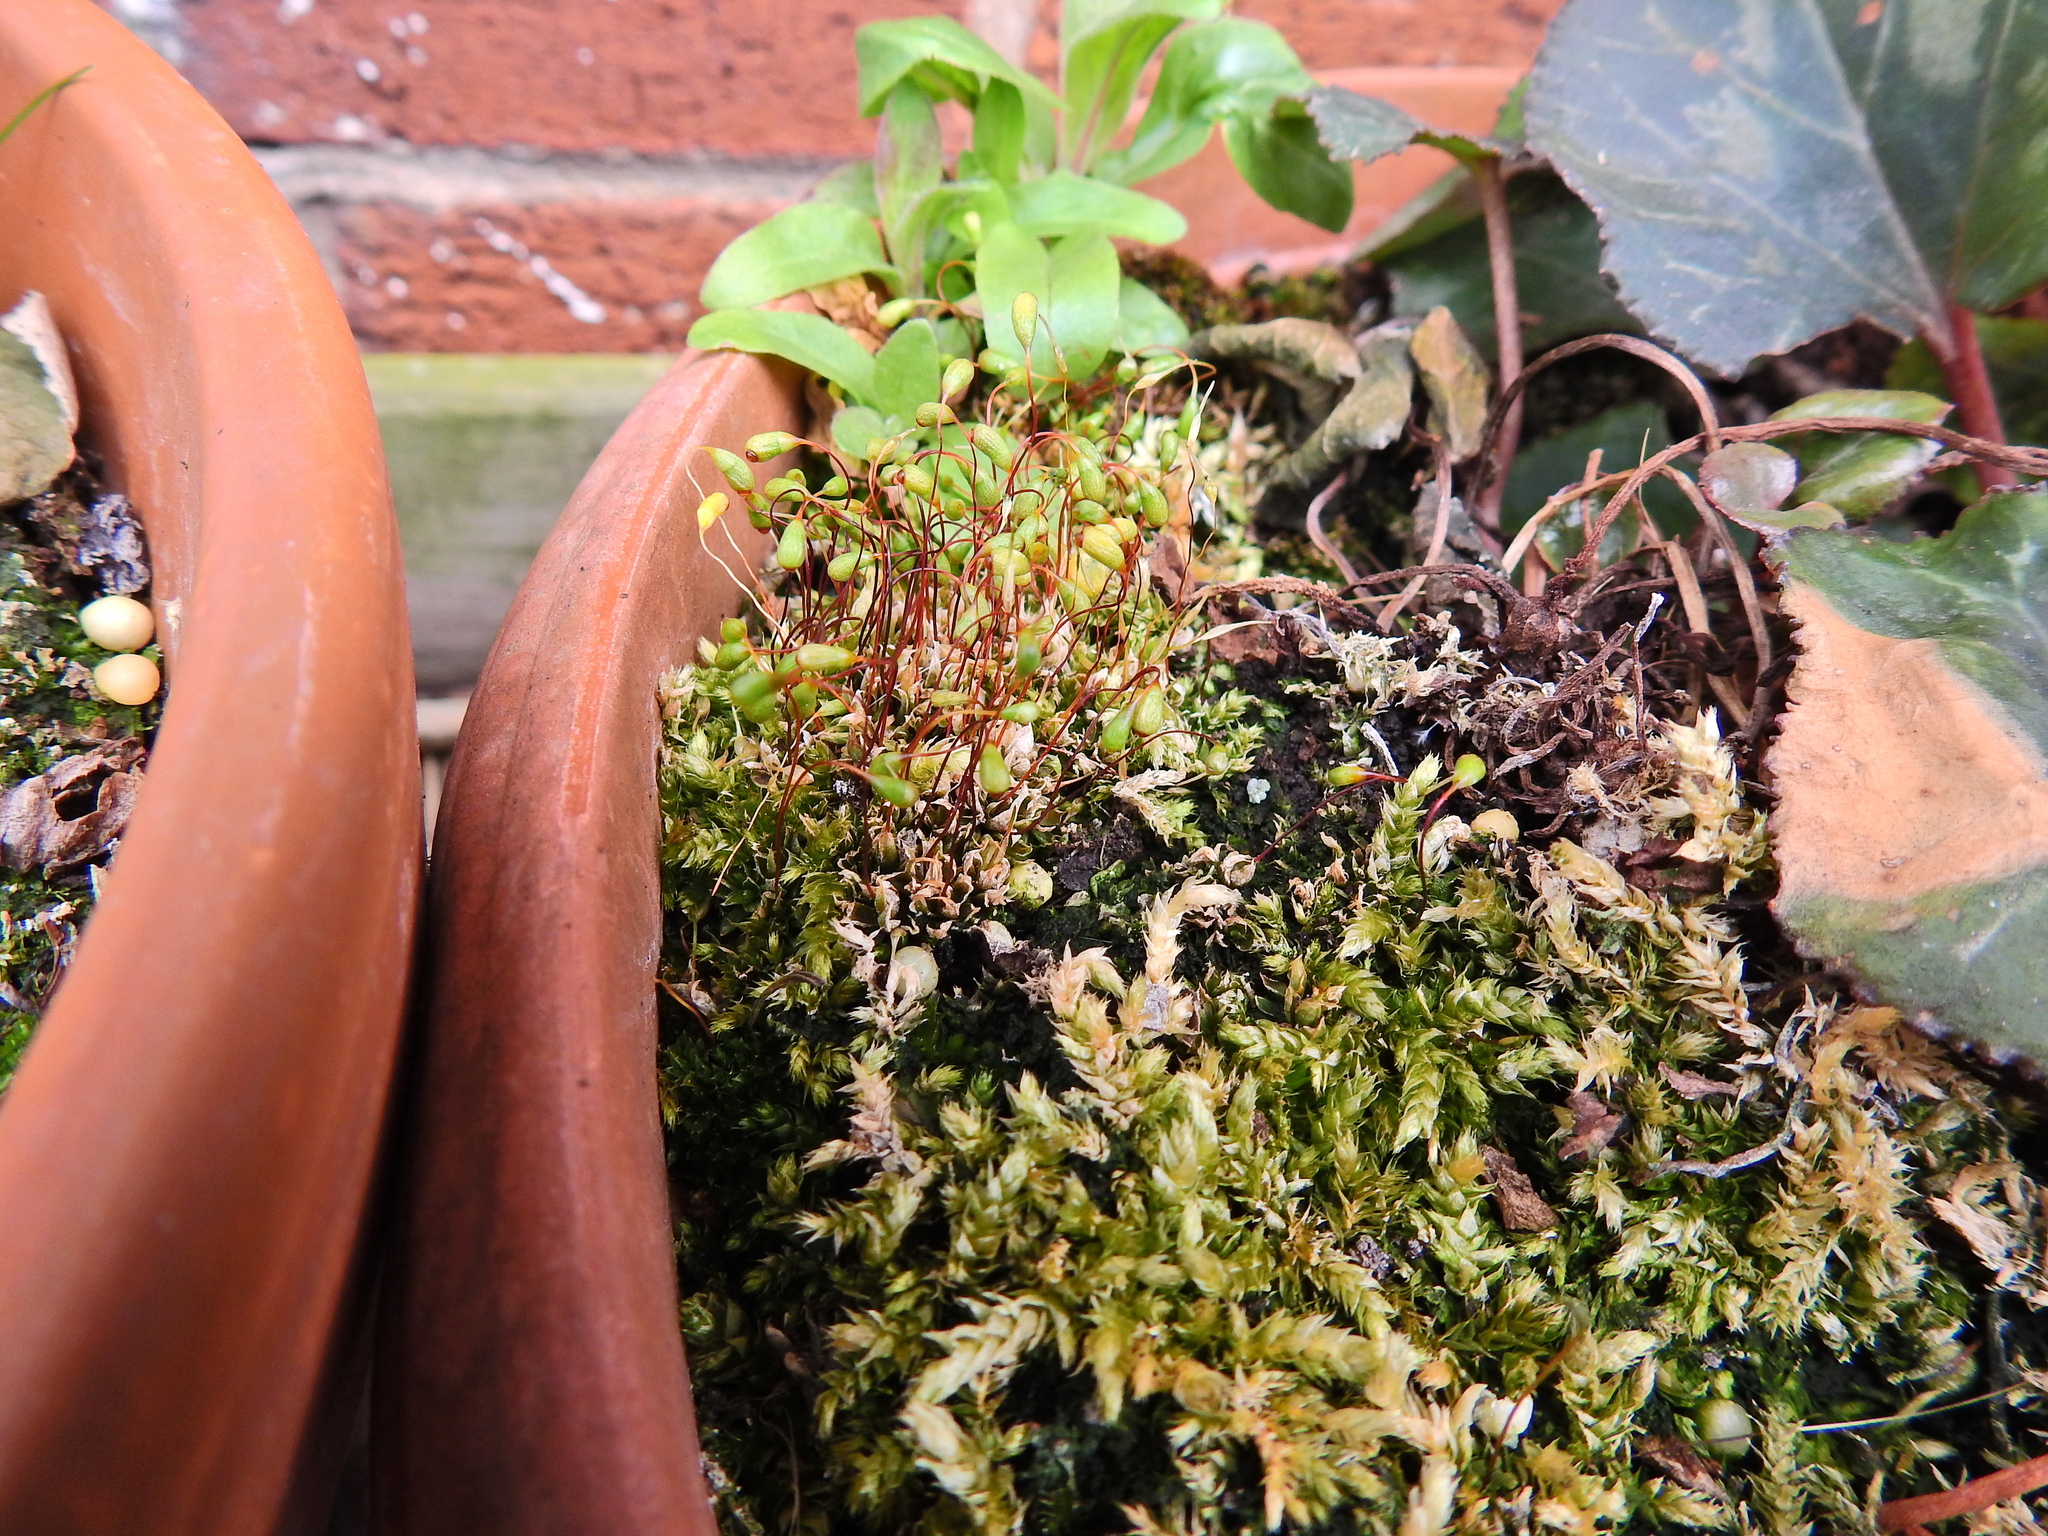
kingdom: Plantae
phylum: Bryophyta
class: Bryopsida
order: Funariales
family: Funariaceae
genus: Funaria
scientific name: Funaria hygrometrica
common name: Common cord moss
